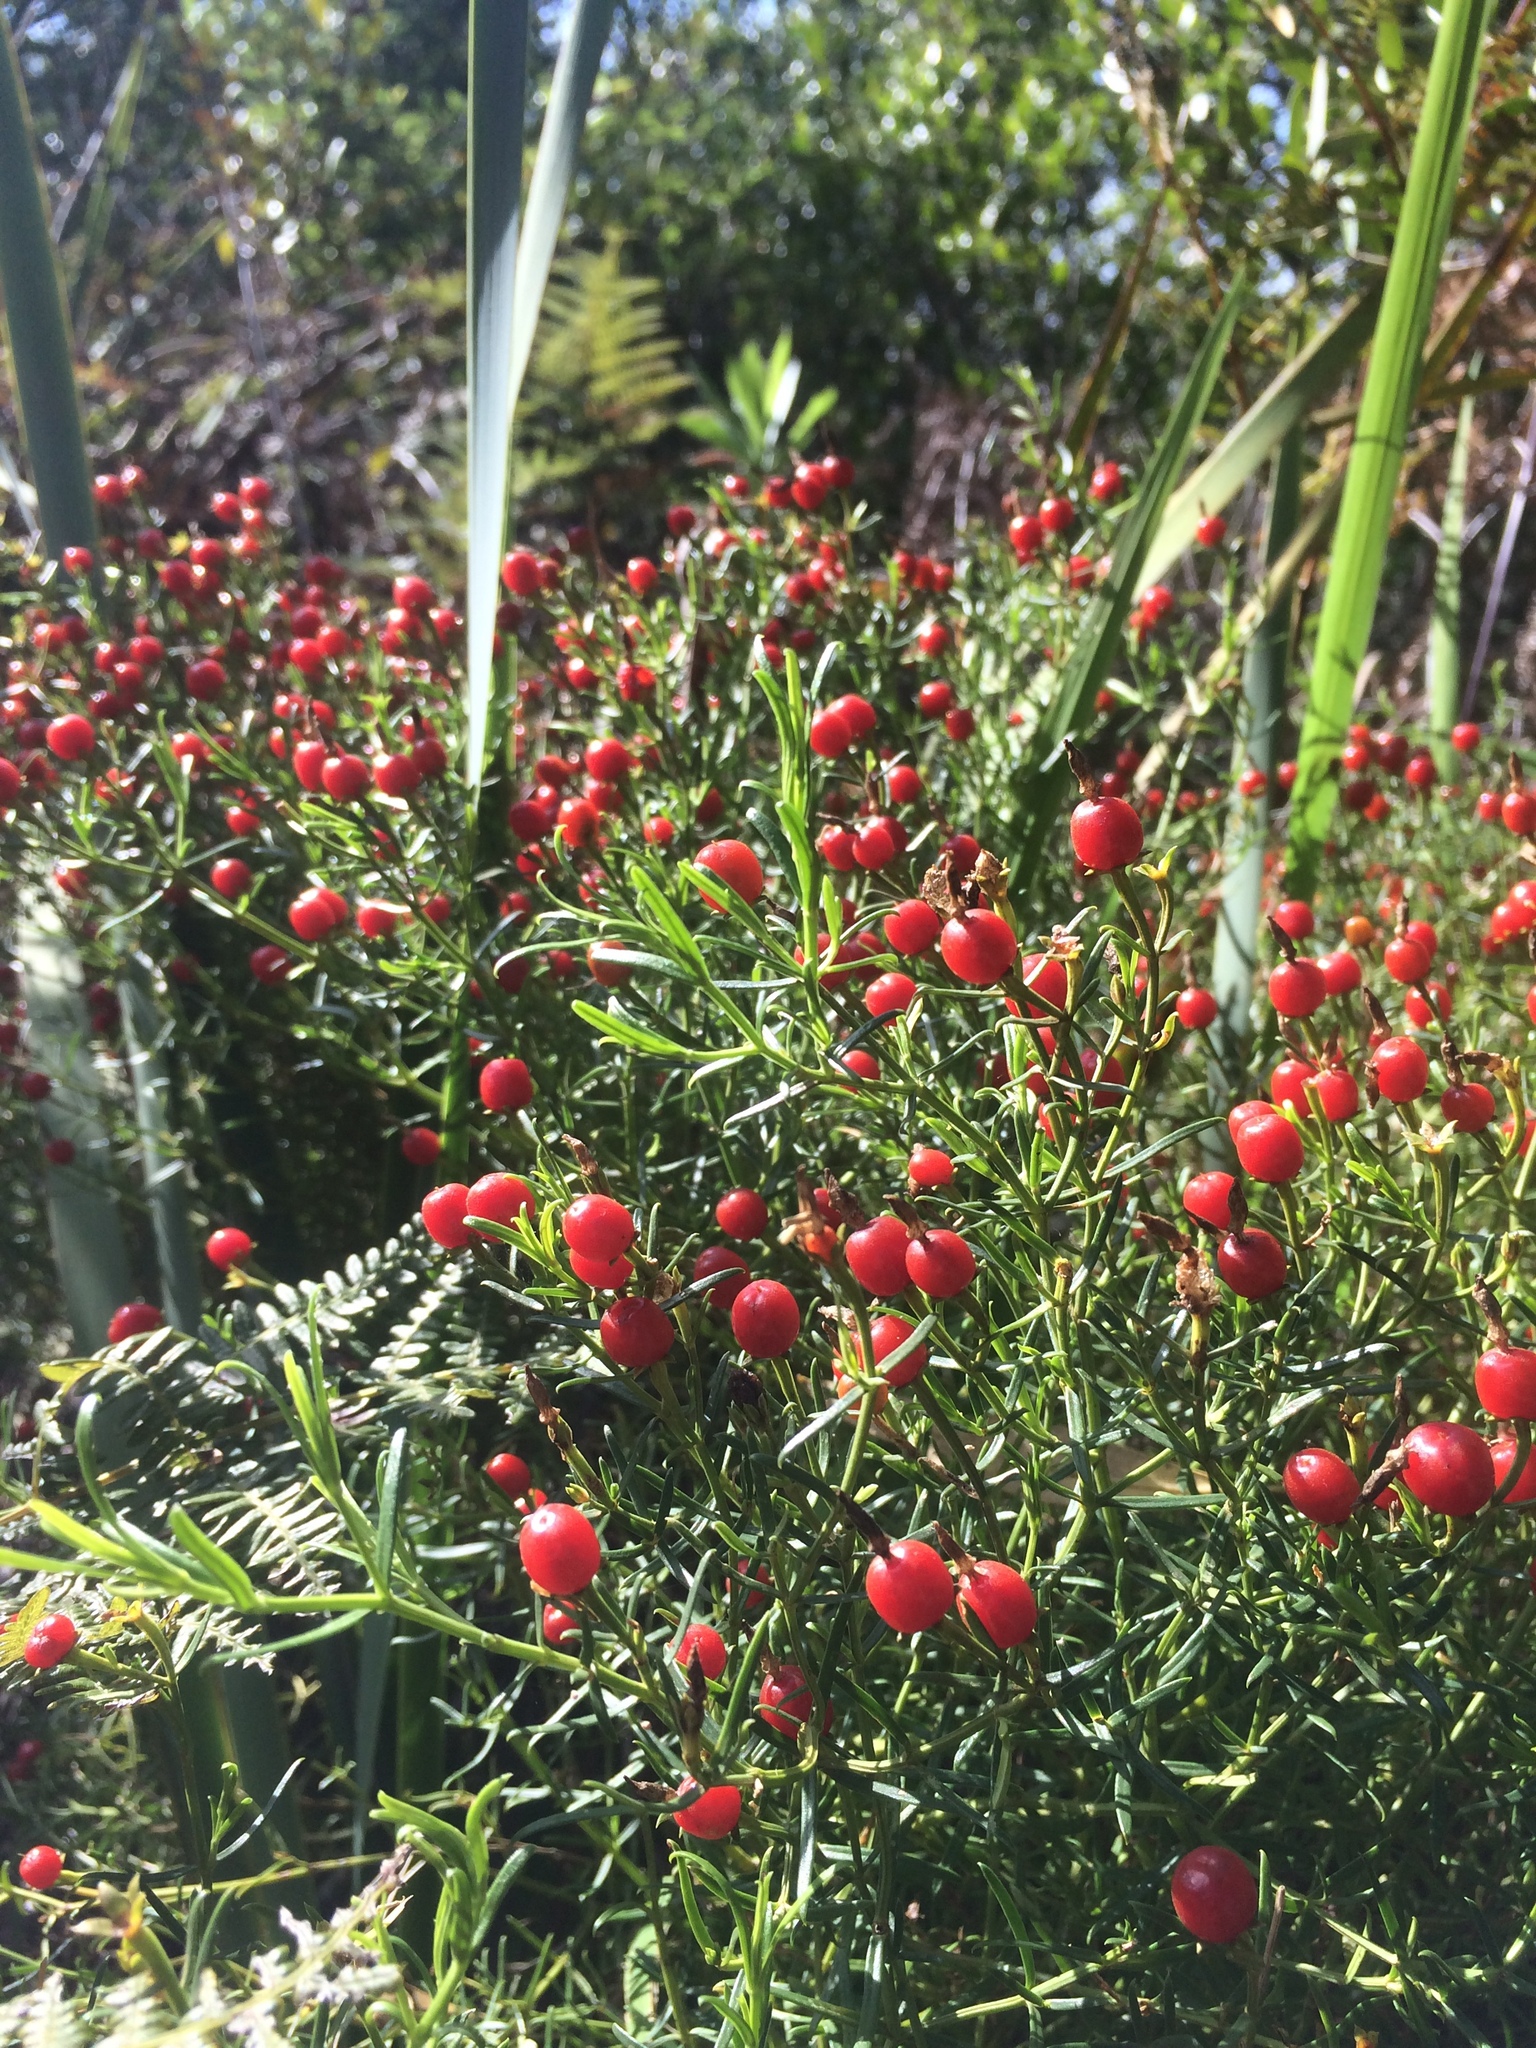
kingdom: Plantae
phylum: Tracheophyta
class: Magnoliopsida
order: Gentianales
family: Gentianaceae
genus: Chironia
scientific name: Chironia baccifera
